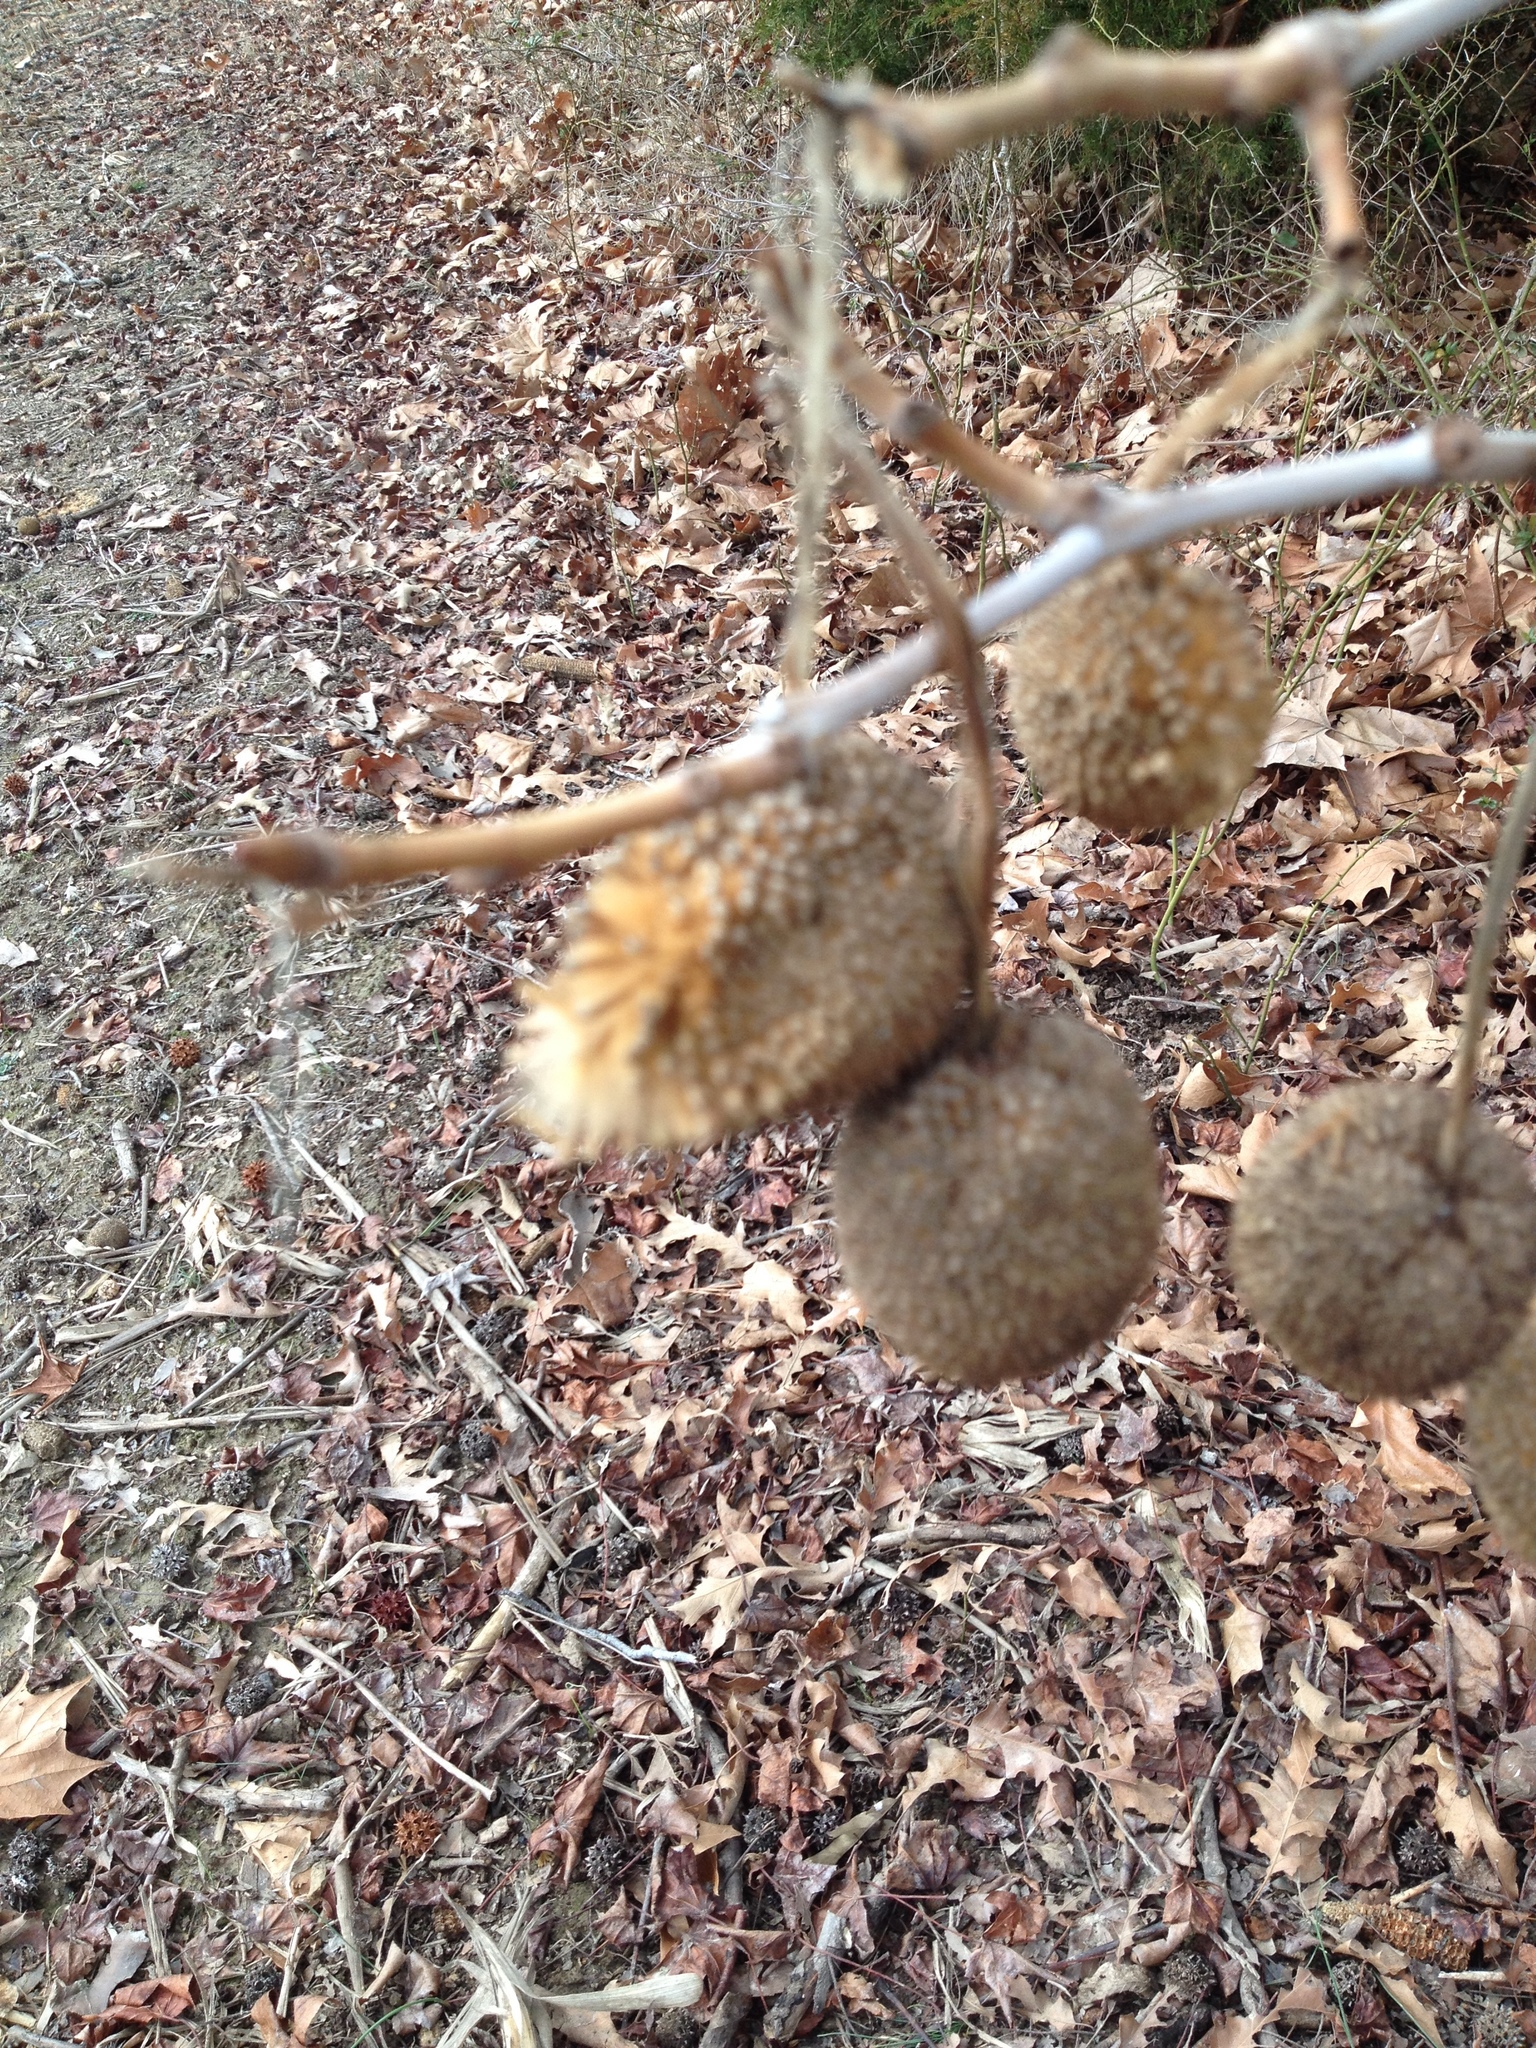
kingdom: Plantae
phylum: Tracheophyta
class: Magnoliopsida
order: Proteales
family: Platanaceae
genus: Platanus
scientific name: Platanus occidentalis
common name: American sycamore
